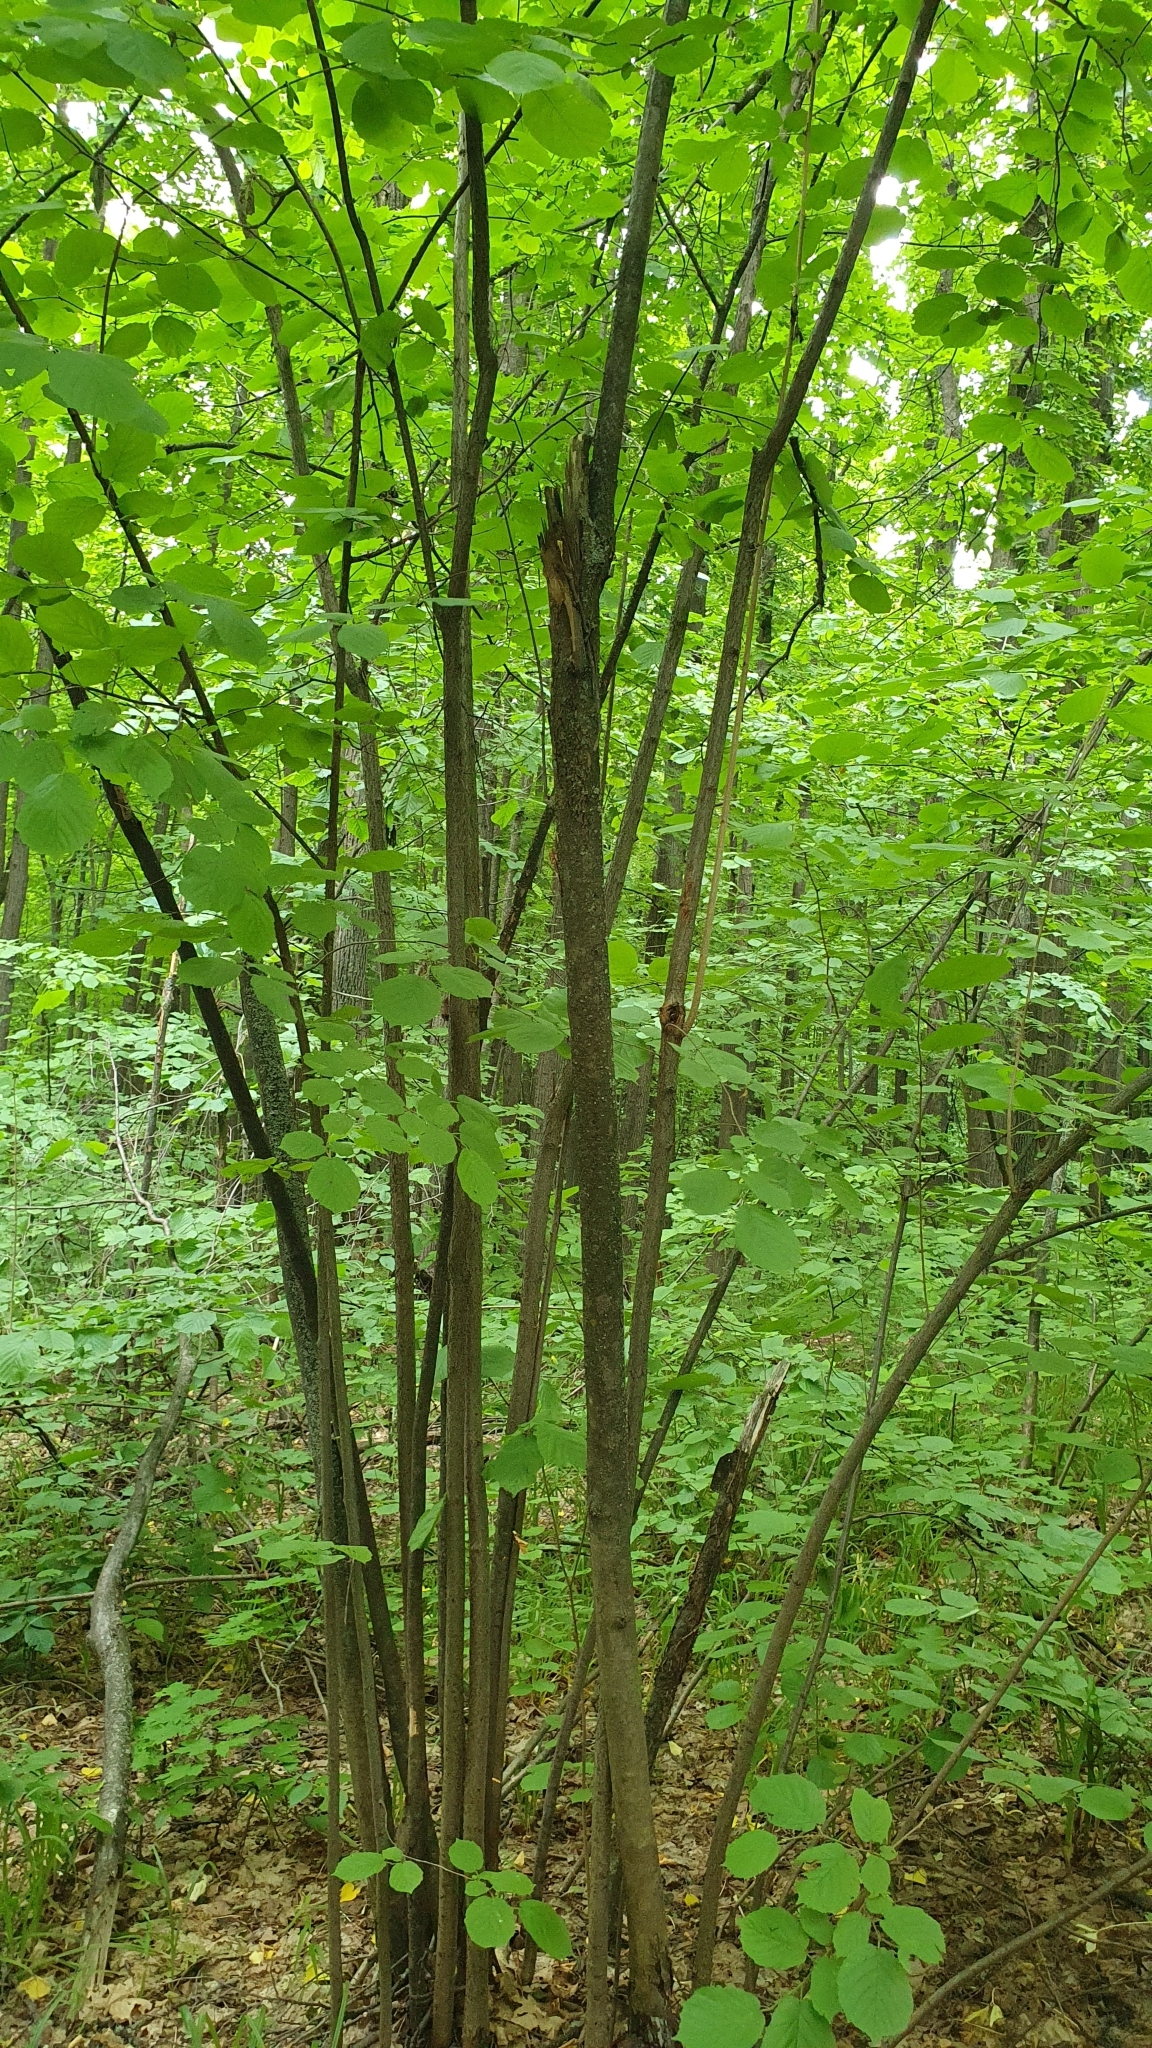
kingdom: Plantae
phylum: Tracheophyta
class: Magnoliopsida
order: Fagales
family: Betulaceae
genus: Corylus
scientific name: Corylus avellana
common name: European hazel
